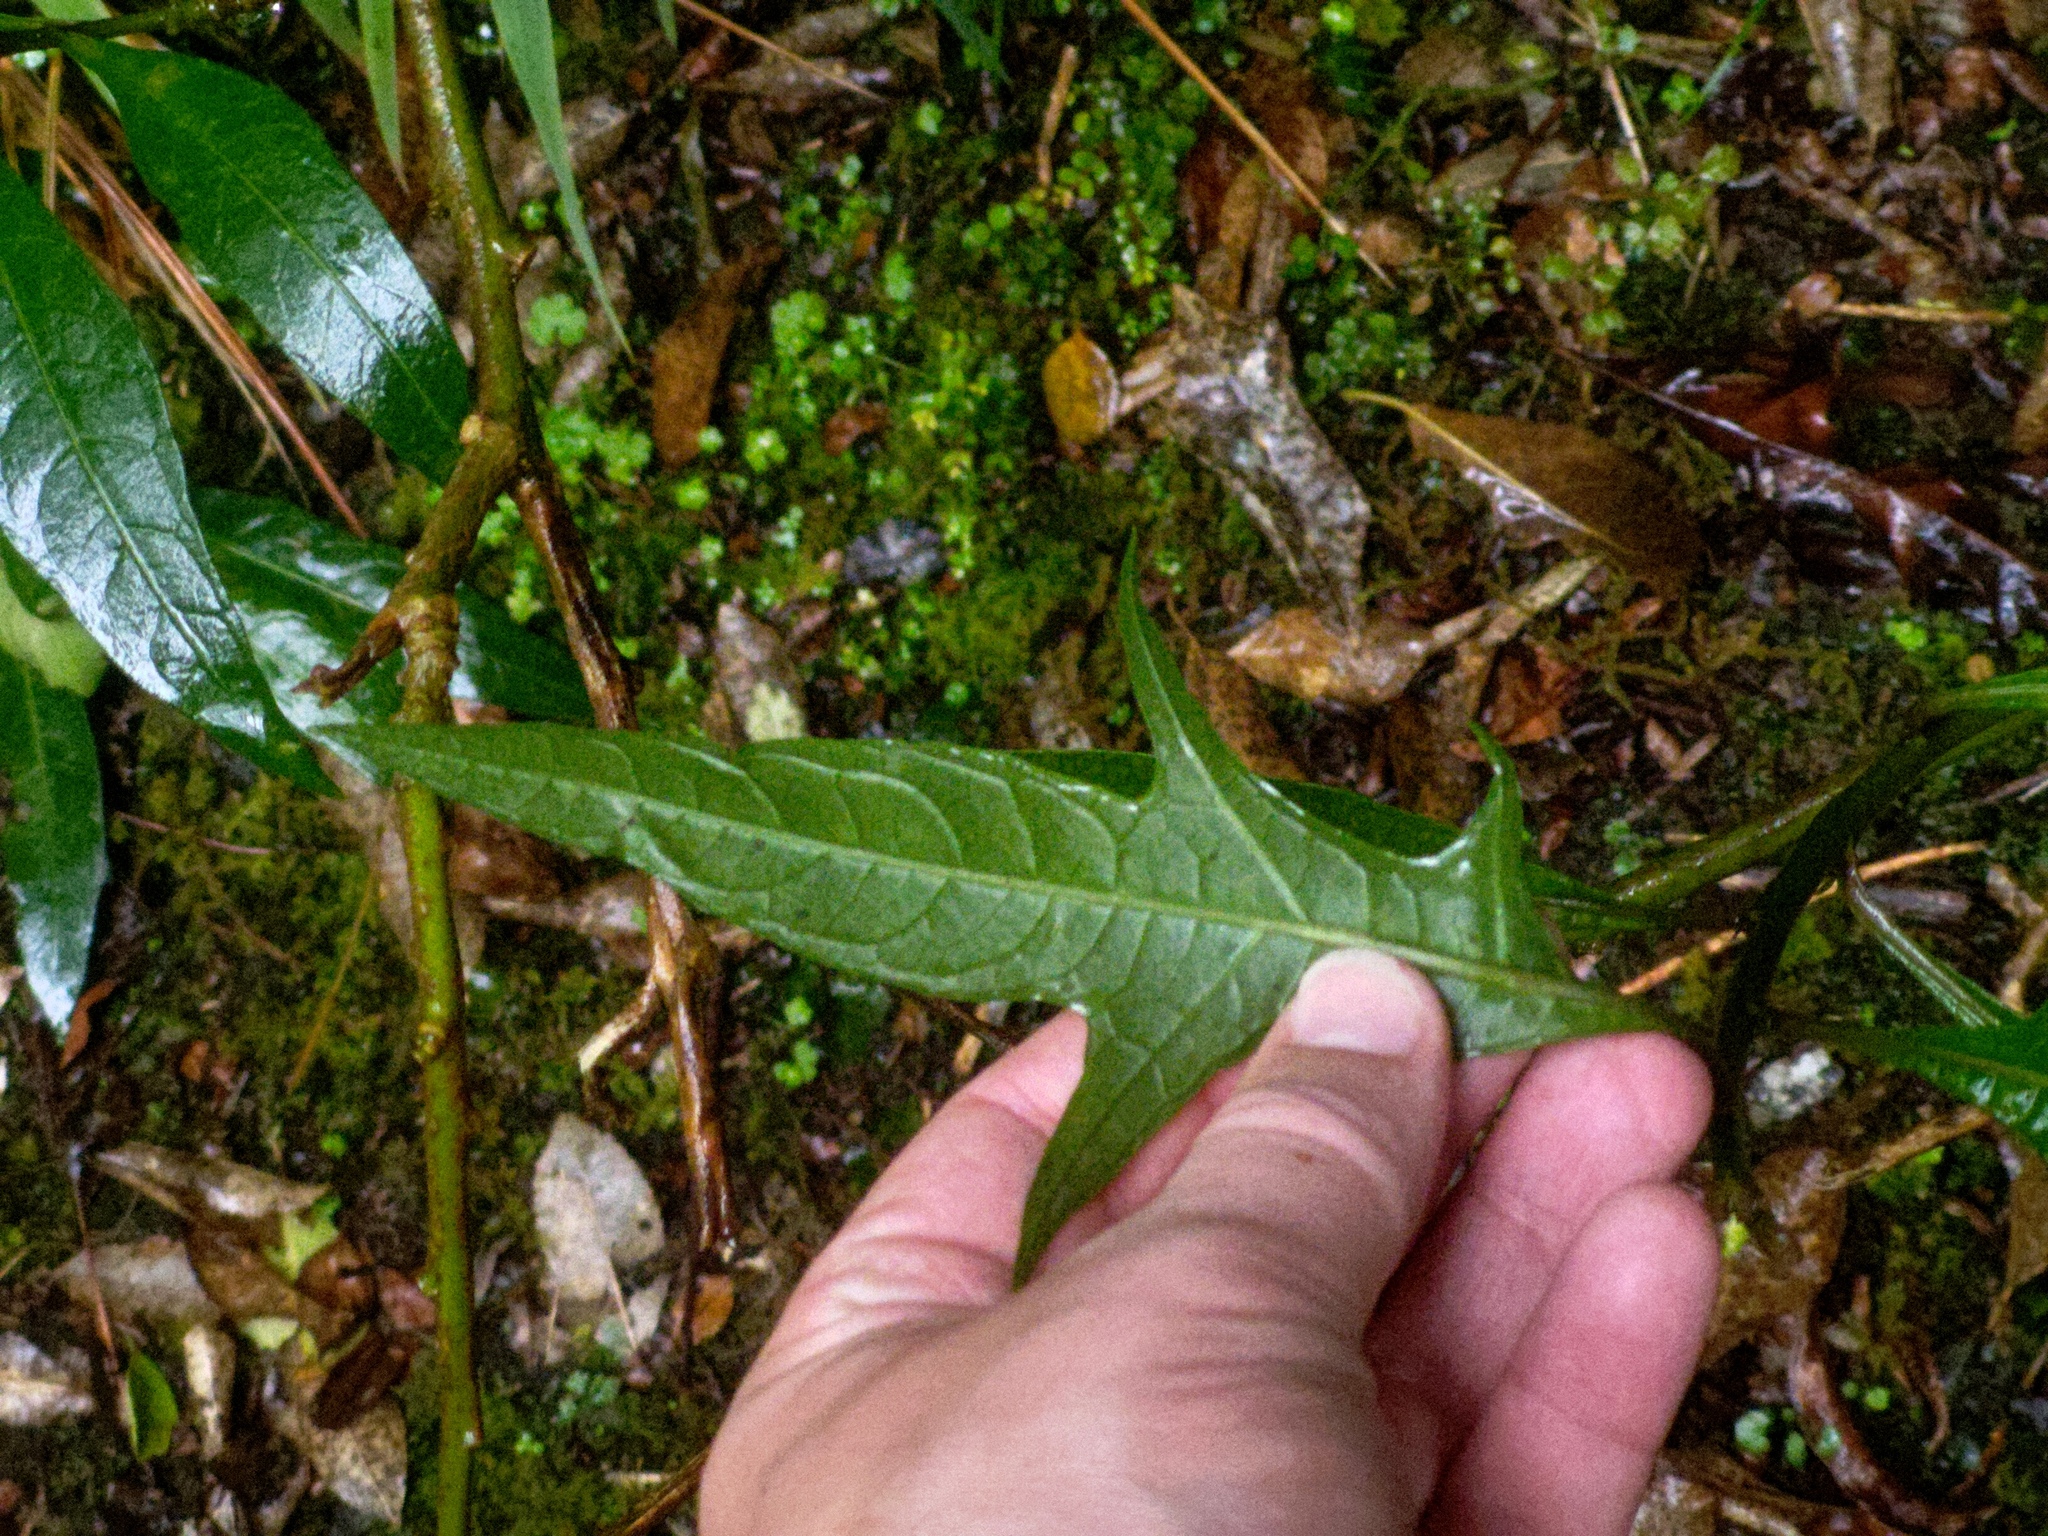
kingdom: Plantae
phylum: Tracheophyta
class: Magnoliopsida
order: Solanales
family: Solanaceae
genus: Solanum
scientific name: Solanum
